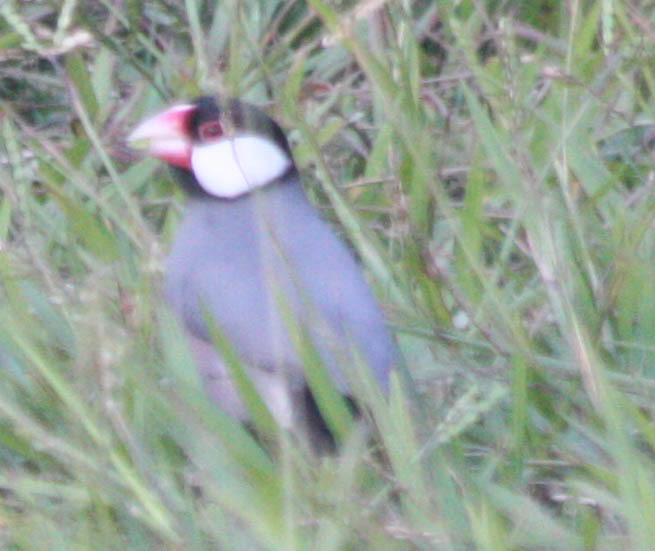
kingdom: Animalia
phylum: Chordata
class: Aves
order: Passeriformes
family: Estrildidae
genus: Lonchura
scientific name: Lonchura oryzivora
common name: Java sparrow
